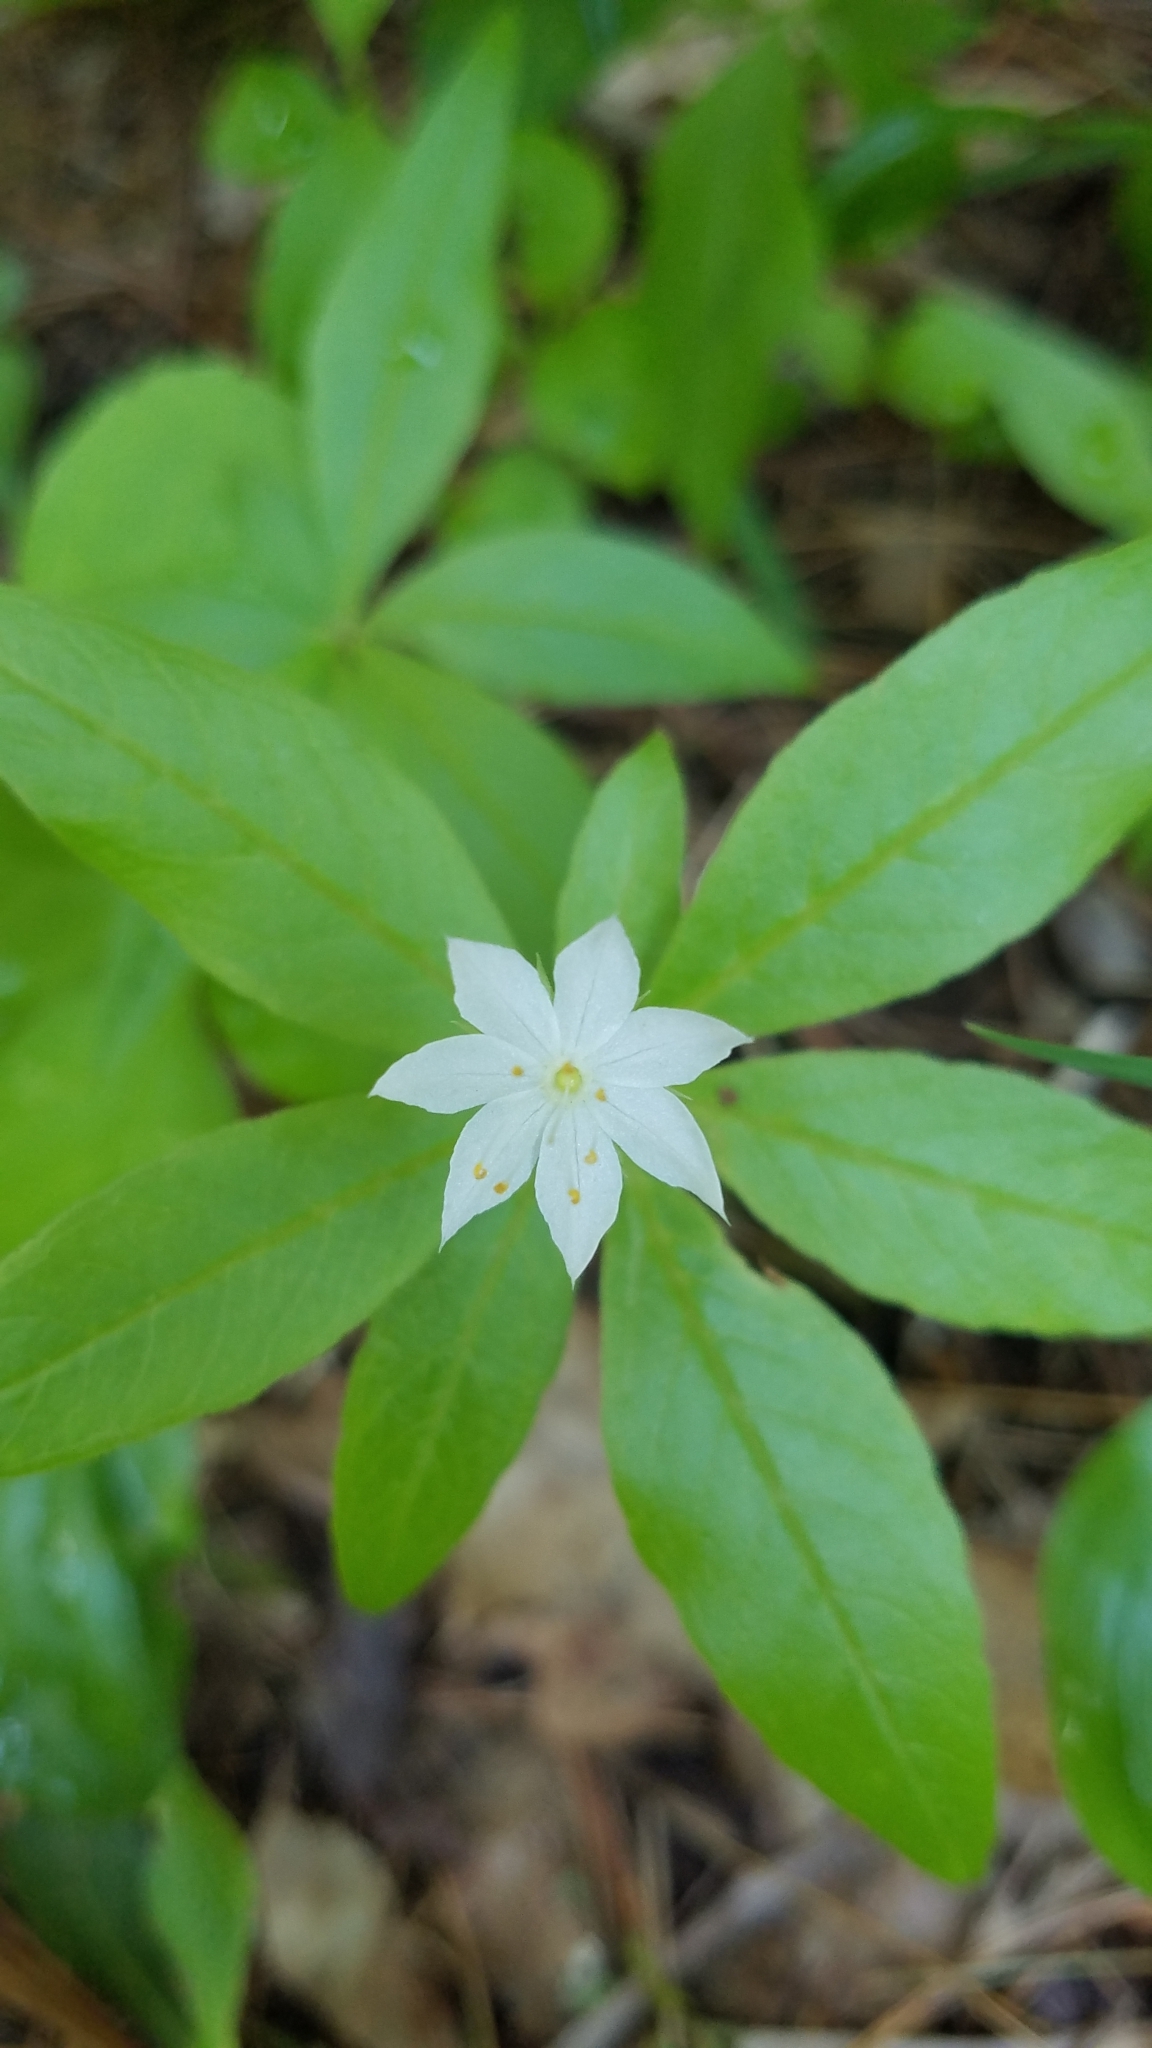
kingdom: Plantae
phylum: Tracheophyta
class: Magnoliopsida
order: Ericales
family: Primulaceae
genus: Lysimachia
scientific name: Lysimachia borealis
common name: American starflower
